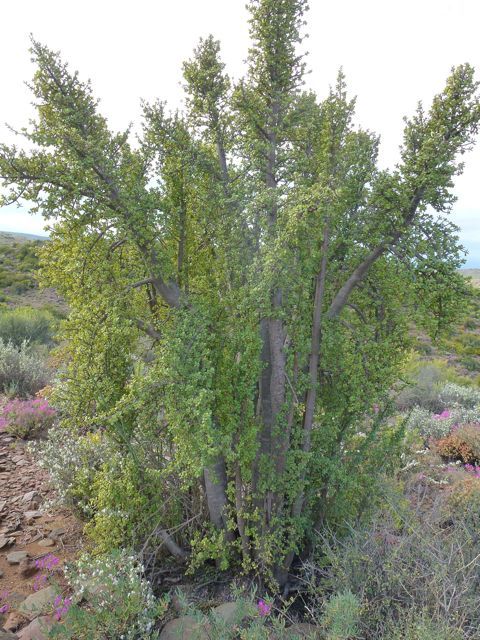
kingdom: Plantae
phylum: Tracheophyta
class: Magnoliopsida
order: Caryophyllales
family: Didiereaceae
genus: Portulacaria
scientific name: Portulacaria afra
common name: Elephant-bush
